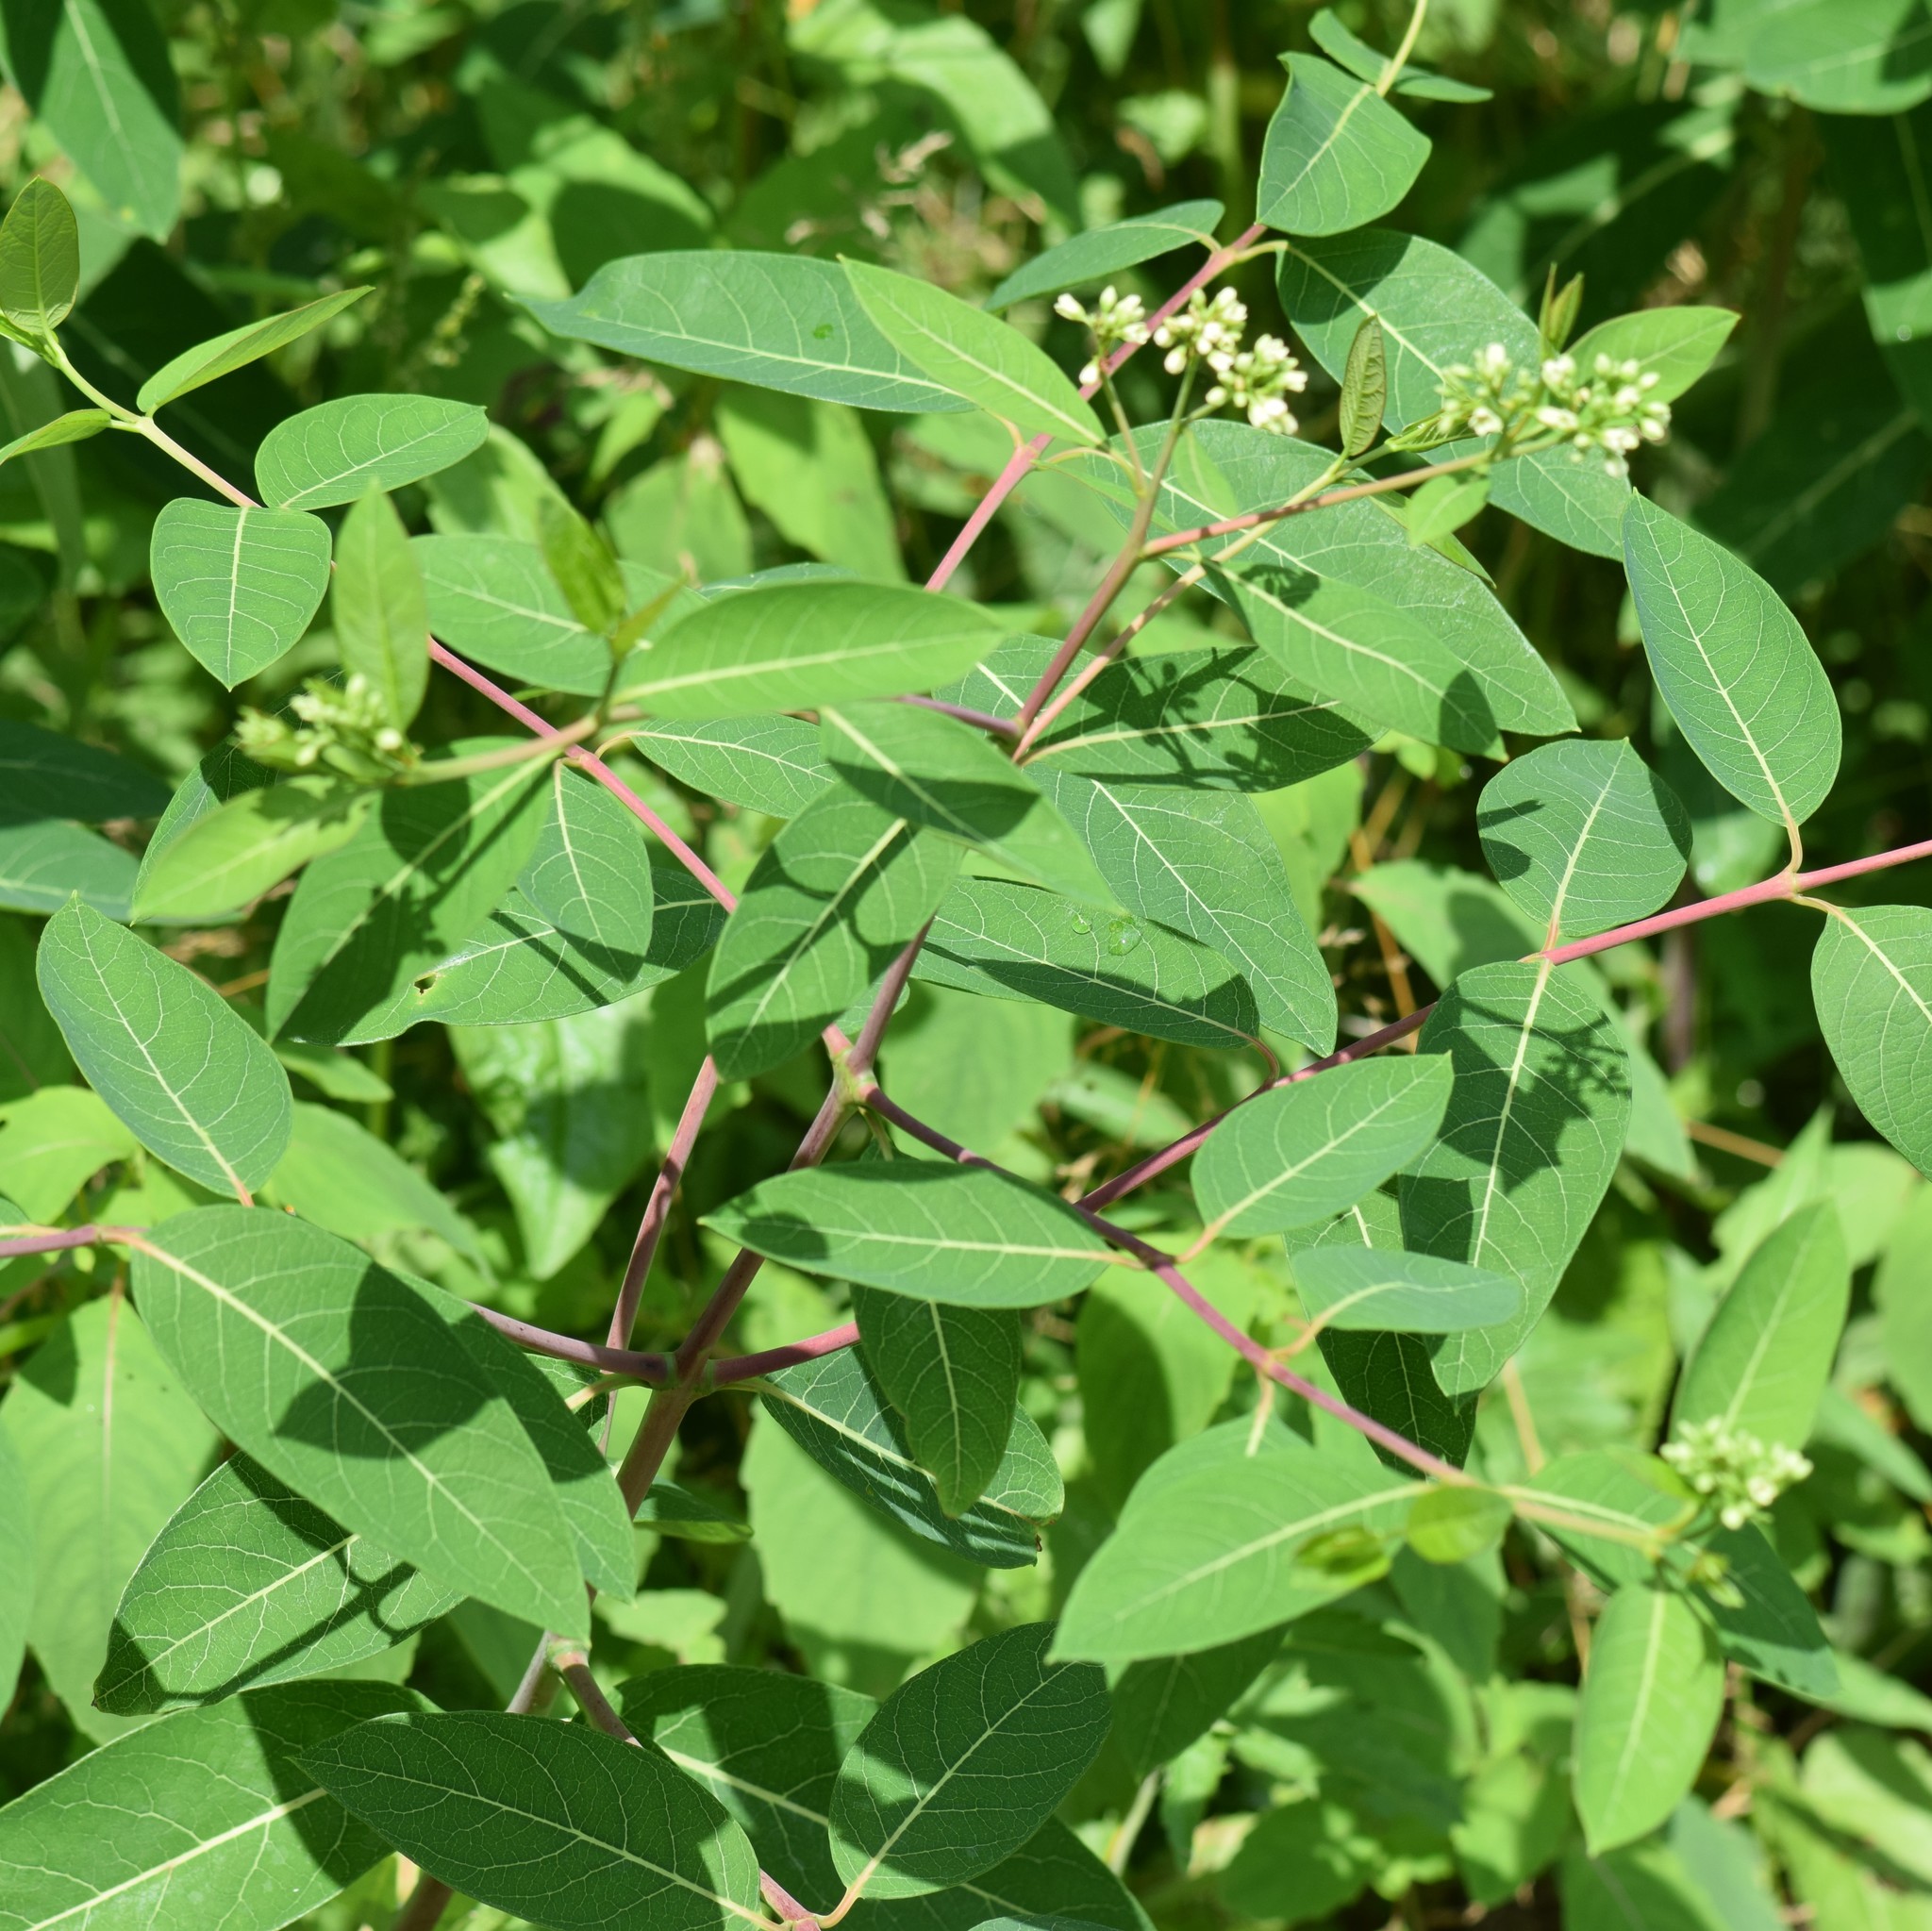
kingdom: Plantae
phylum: Tracheophyta
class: Magnoliopsida
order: Gentianales
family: Apocynaceae
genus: Apocynum
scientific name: Apocynum cannabinum
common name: Hemp dogbane
